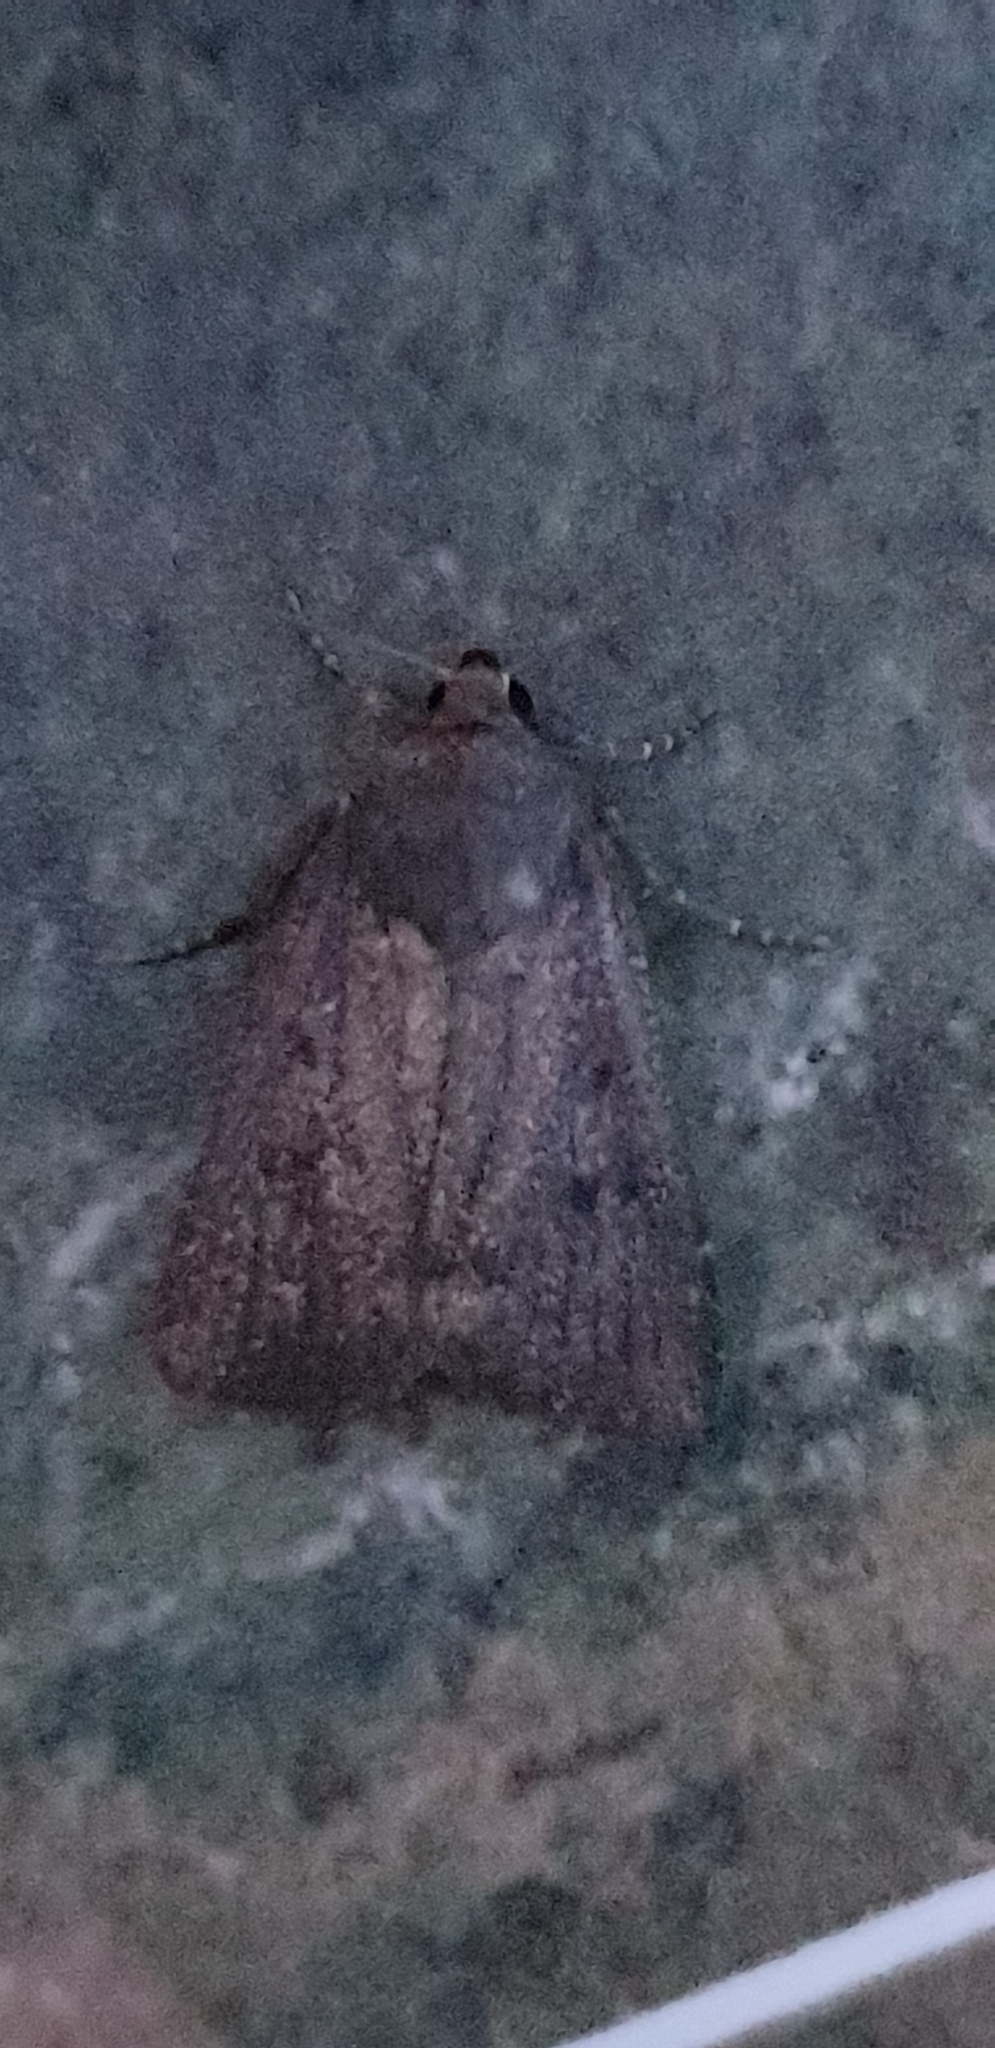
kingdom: Animalia
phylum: Arthropoda
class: Insecta
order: Lepidoptera
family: Noctuidae
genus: Amphipyra
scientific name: Amphipyra tragopoginis
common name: Mouse moth
